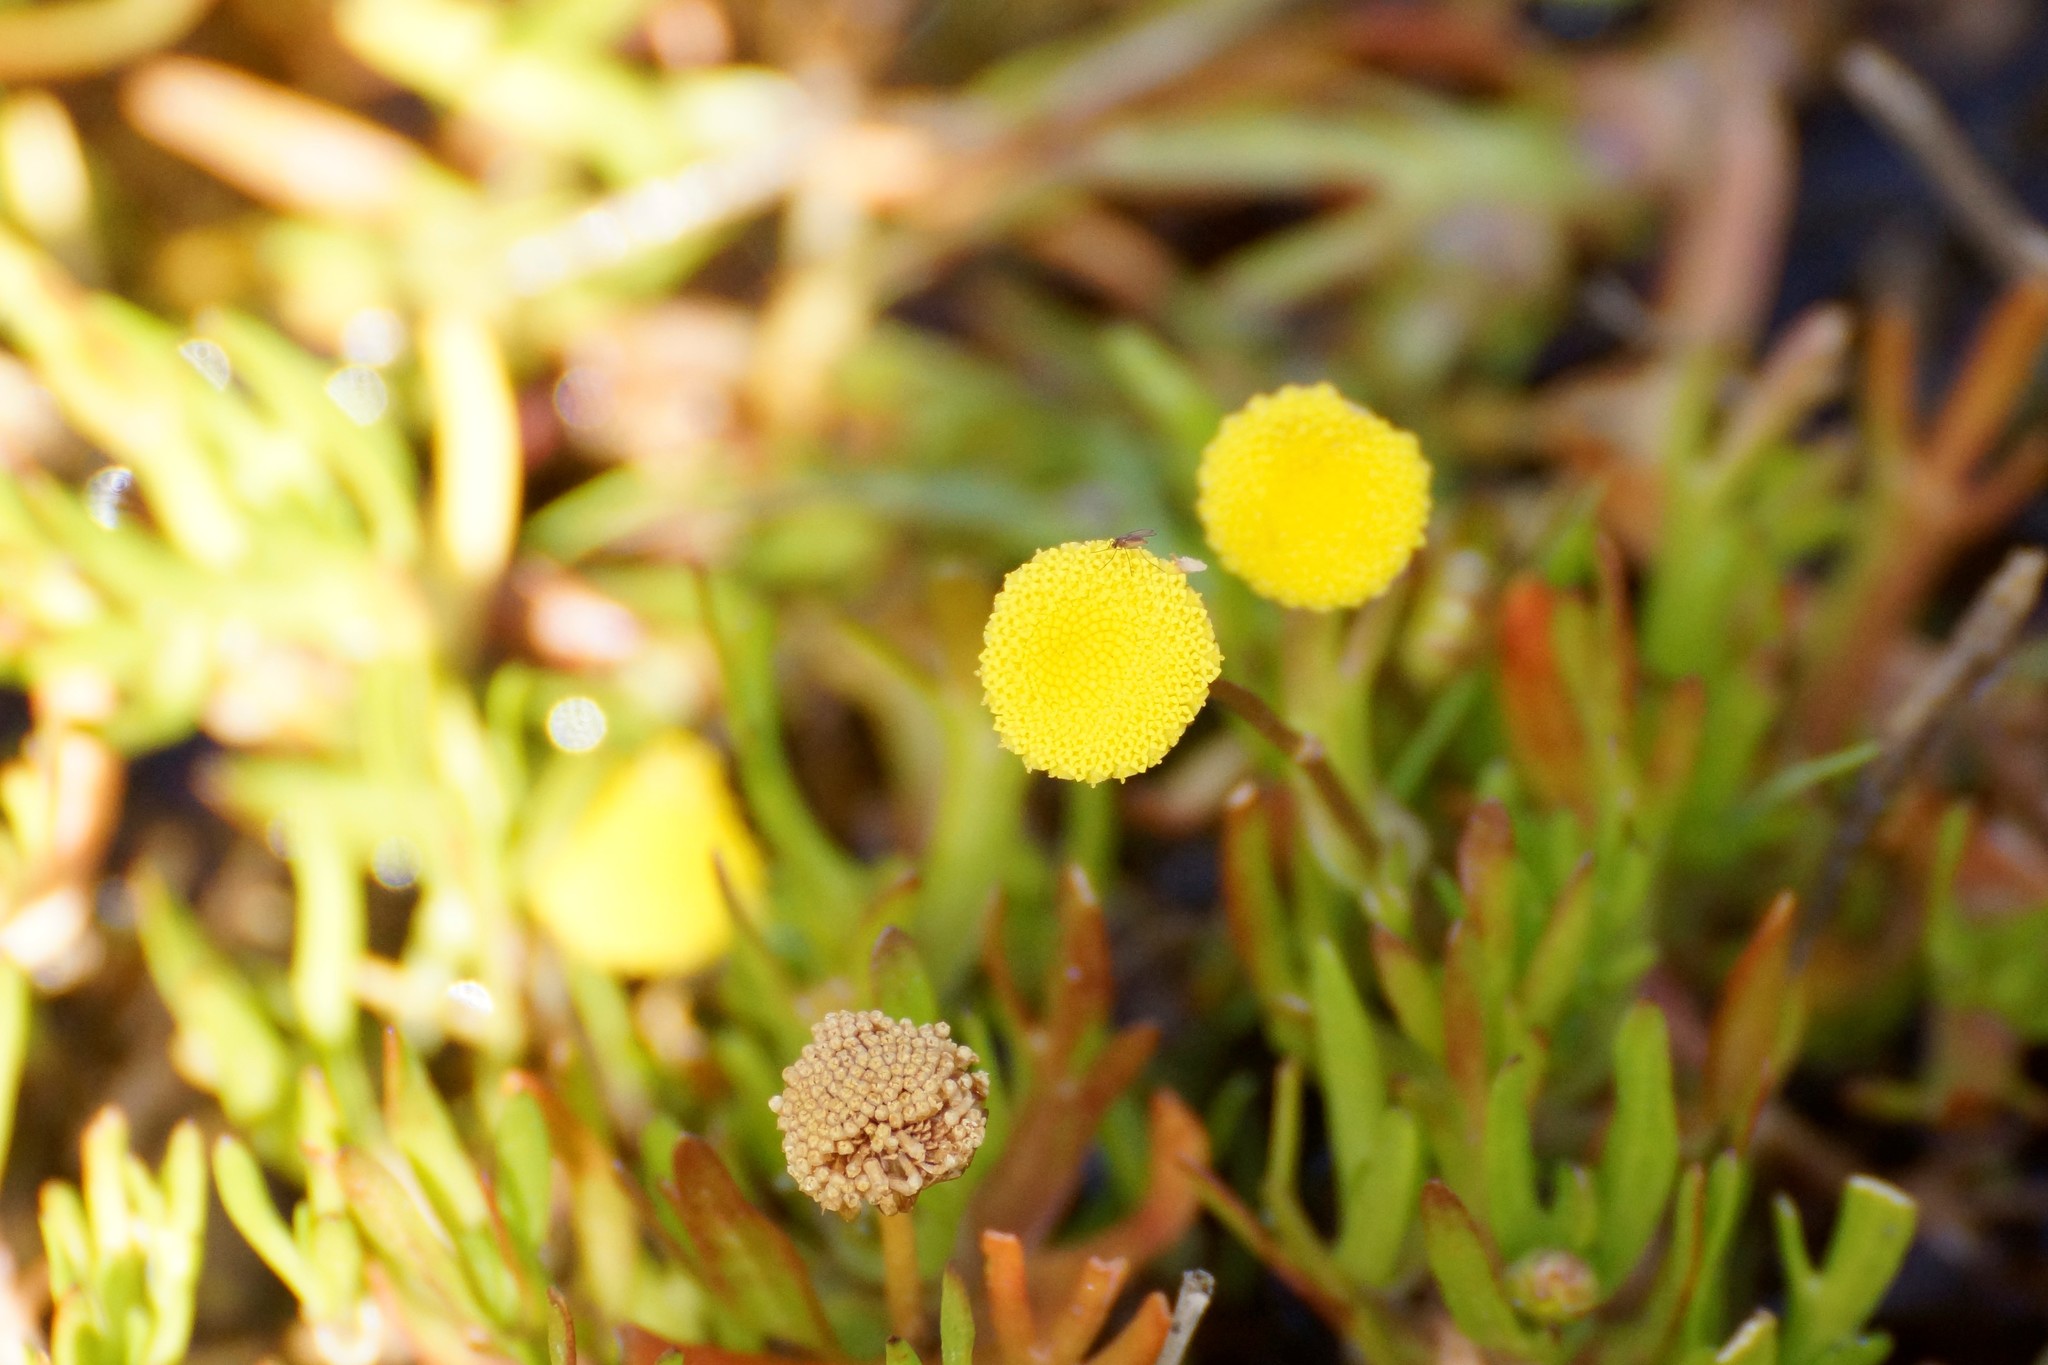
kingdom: Plantae
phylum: Tracheophyta
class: Magnoliopsida
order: Asterales
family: Asteraceae
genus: Cotula
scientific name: Cotula coronopifolia
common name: Buttonweed
